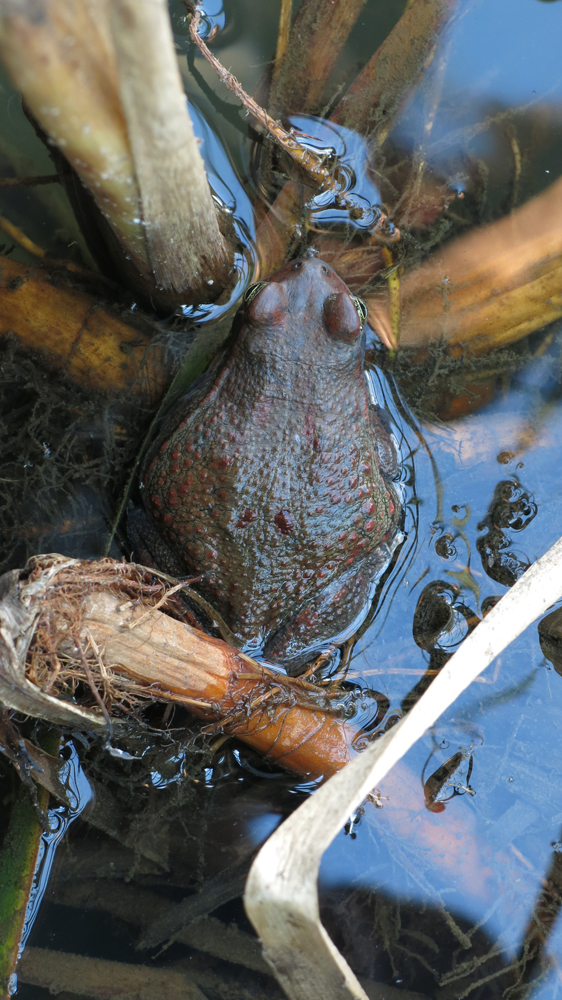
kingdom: Animalia
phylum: Chordata
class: Amphibia
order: Anura
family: Bufonidae
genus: Schismaderma
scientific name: Schismaderma carens
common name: African split-skin toad
